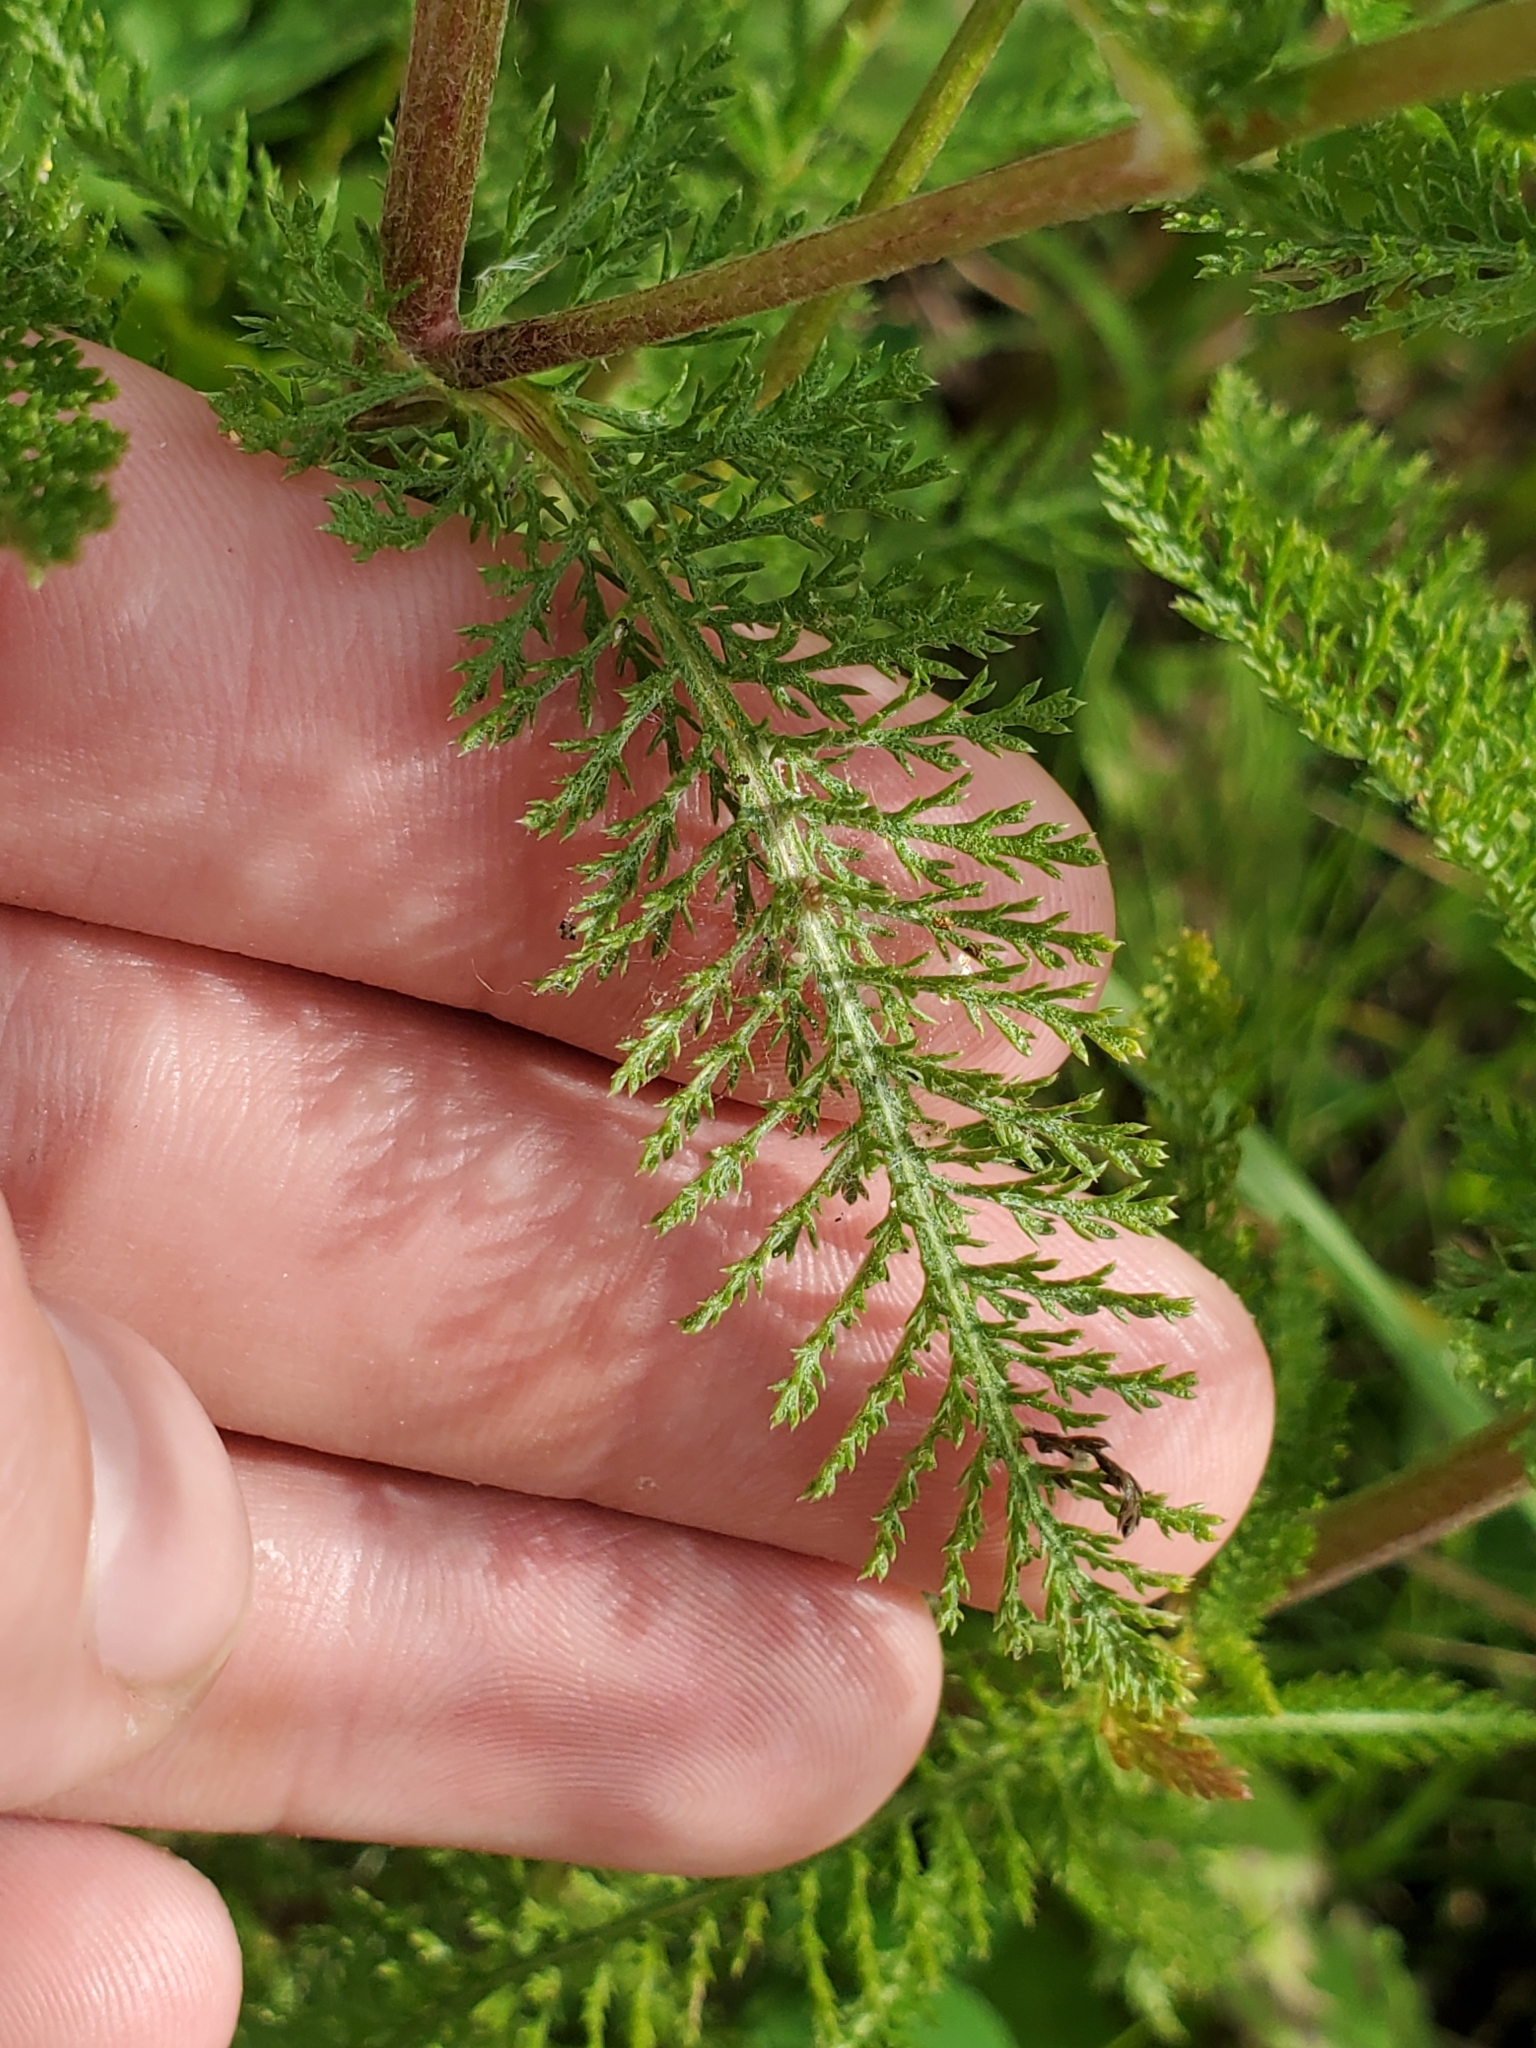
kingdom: Plantae
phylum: Tracheophyta
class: Magnoliopsida
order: Asterales
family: Asteraceae
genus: Achillea
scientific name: Achillea millefolium
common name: Yarrow
